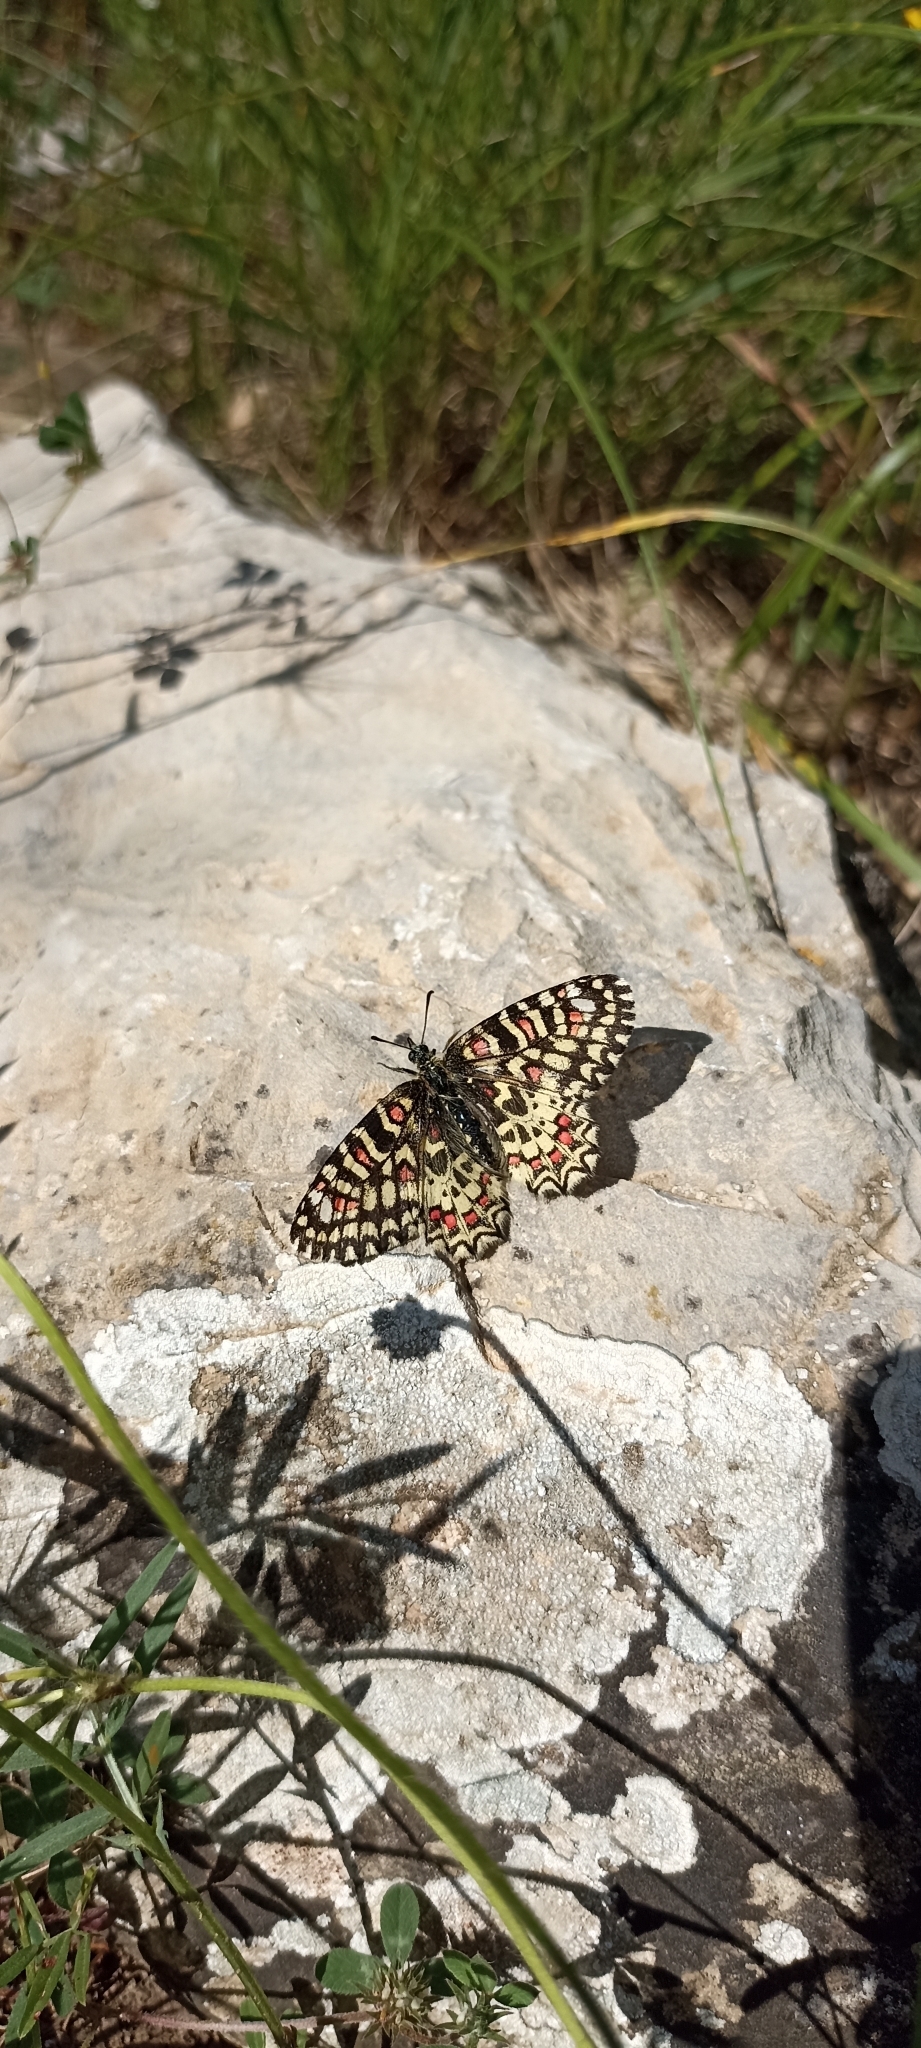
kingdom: Animalia
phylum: Arthropoda
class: Insecta
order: Lepidoptera
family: Papilionidae
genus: Zerynthia
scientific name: Zerynthia rumina
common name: Spanish festoon
